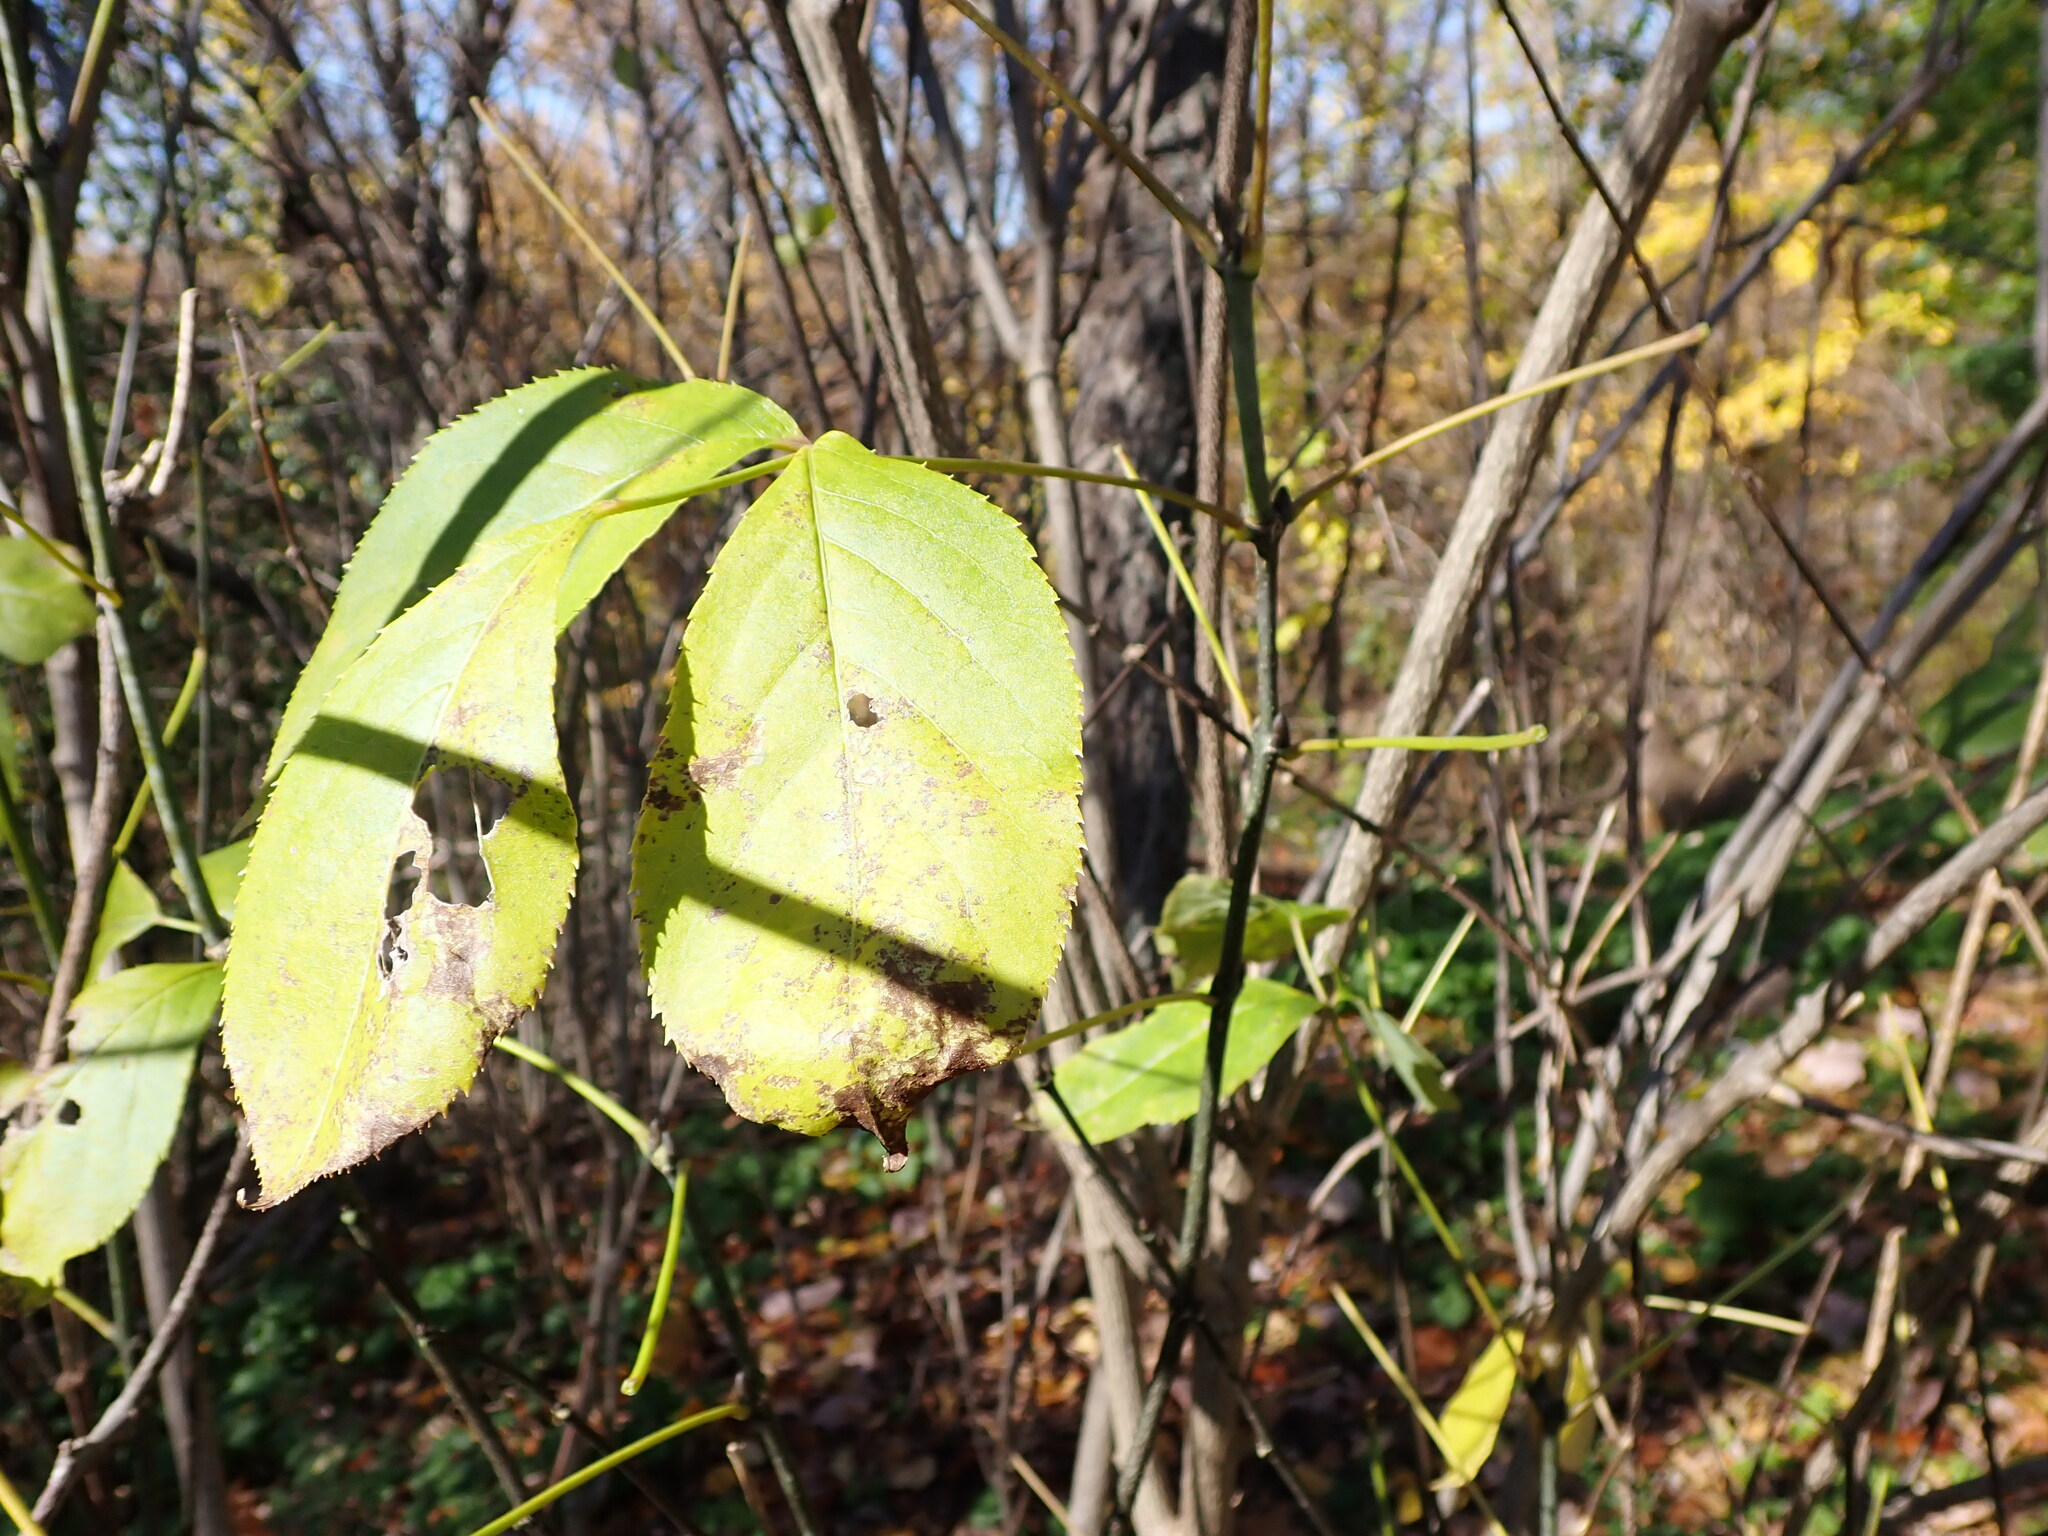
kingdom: Plantae
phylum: Tracheophyta
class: Magnoliopsida
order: Crossosomatales
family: Staphyleaceae
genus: Staphylea
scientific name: Staphylea trifolia
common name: American bladdernut
